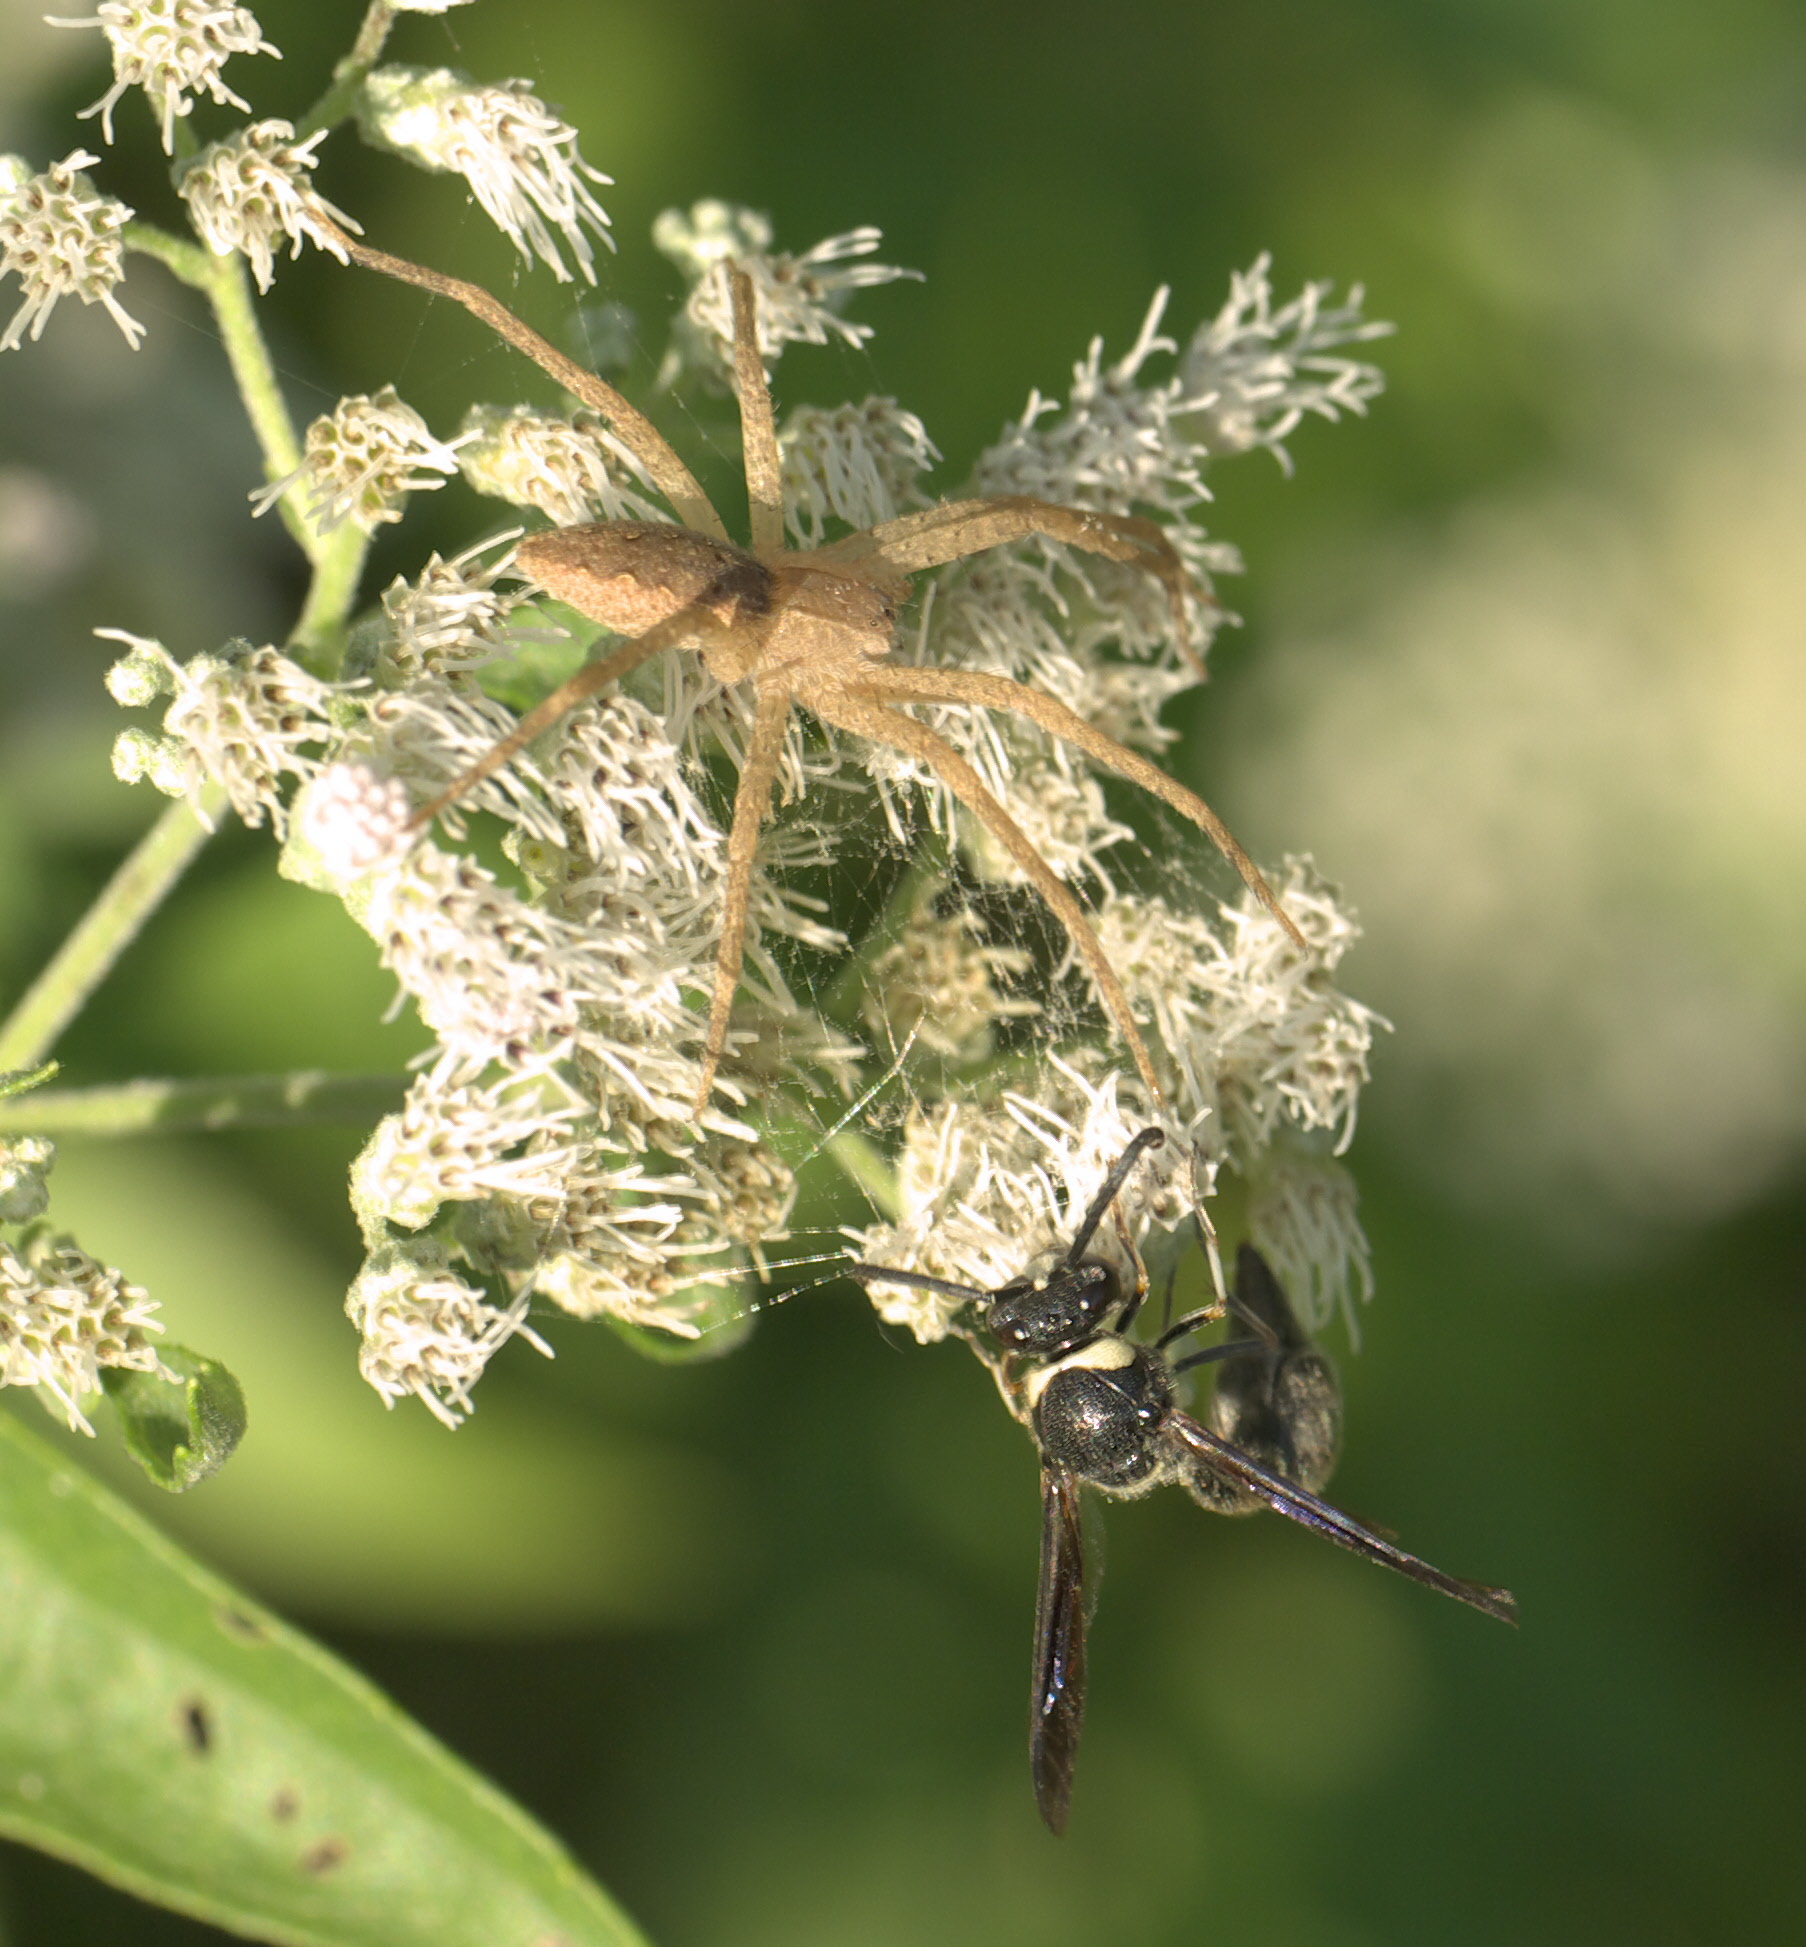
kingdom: Animalia
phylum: Arthropoda
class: Arachnida
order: Araneae
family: Pisauridae
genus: Pisaurina
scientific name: Pisaurina mira
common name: American nursery web spider
